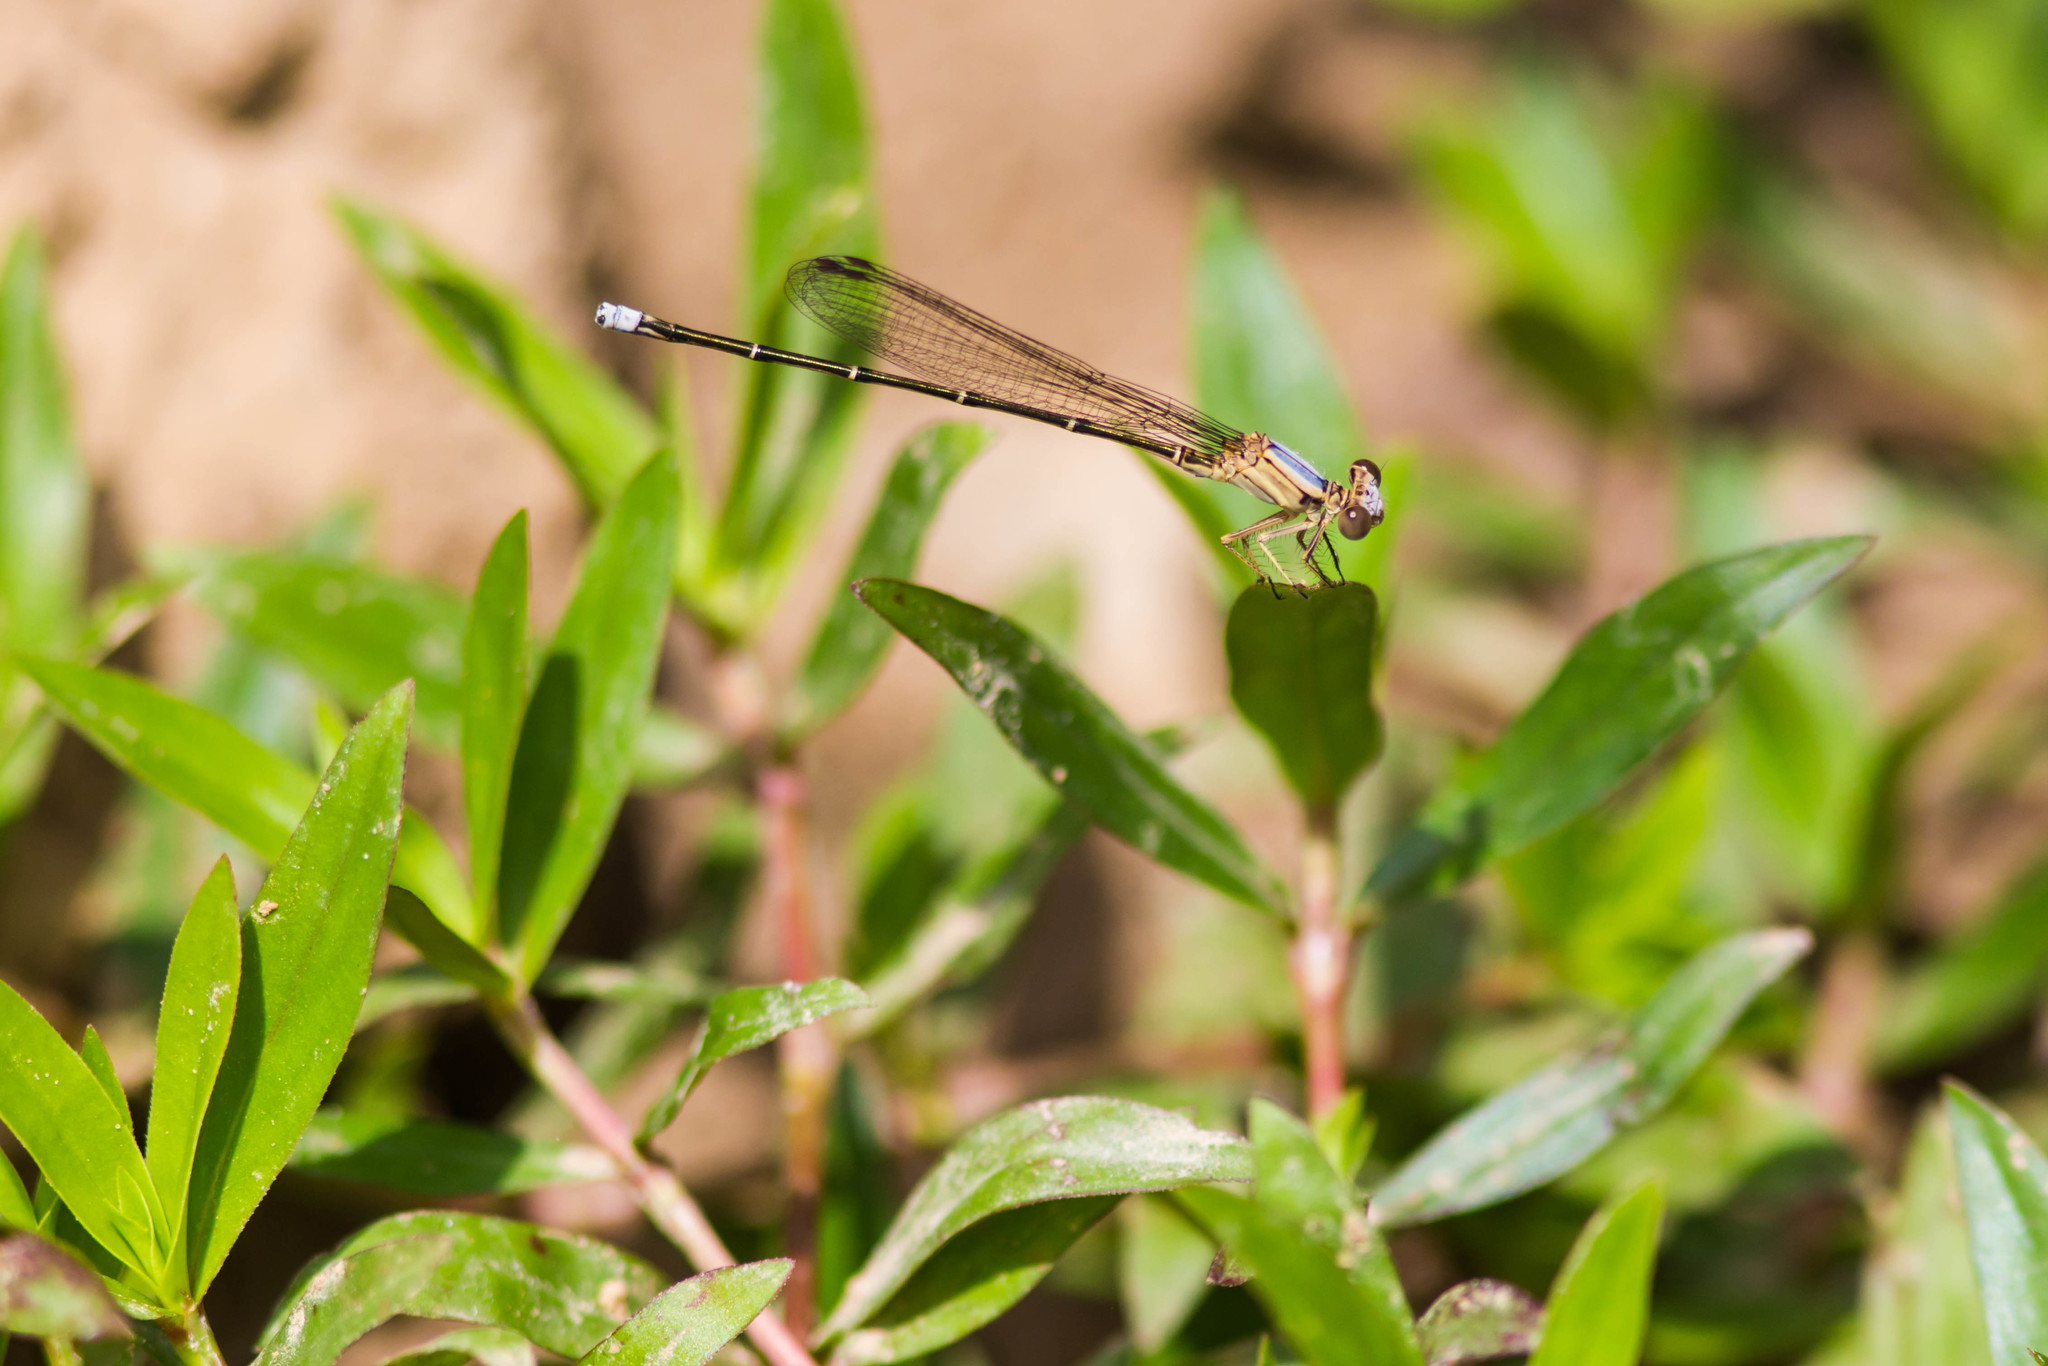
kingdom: Animalia
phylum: Arthropoda
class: Insecta
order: Odonata
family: Coenagrionidae
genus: Argia
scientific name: Argia moesta
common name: Powdered dancer
